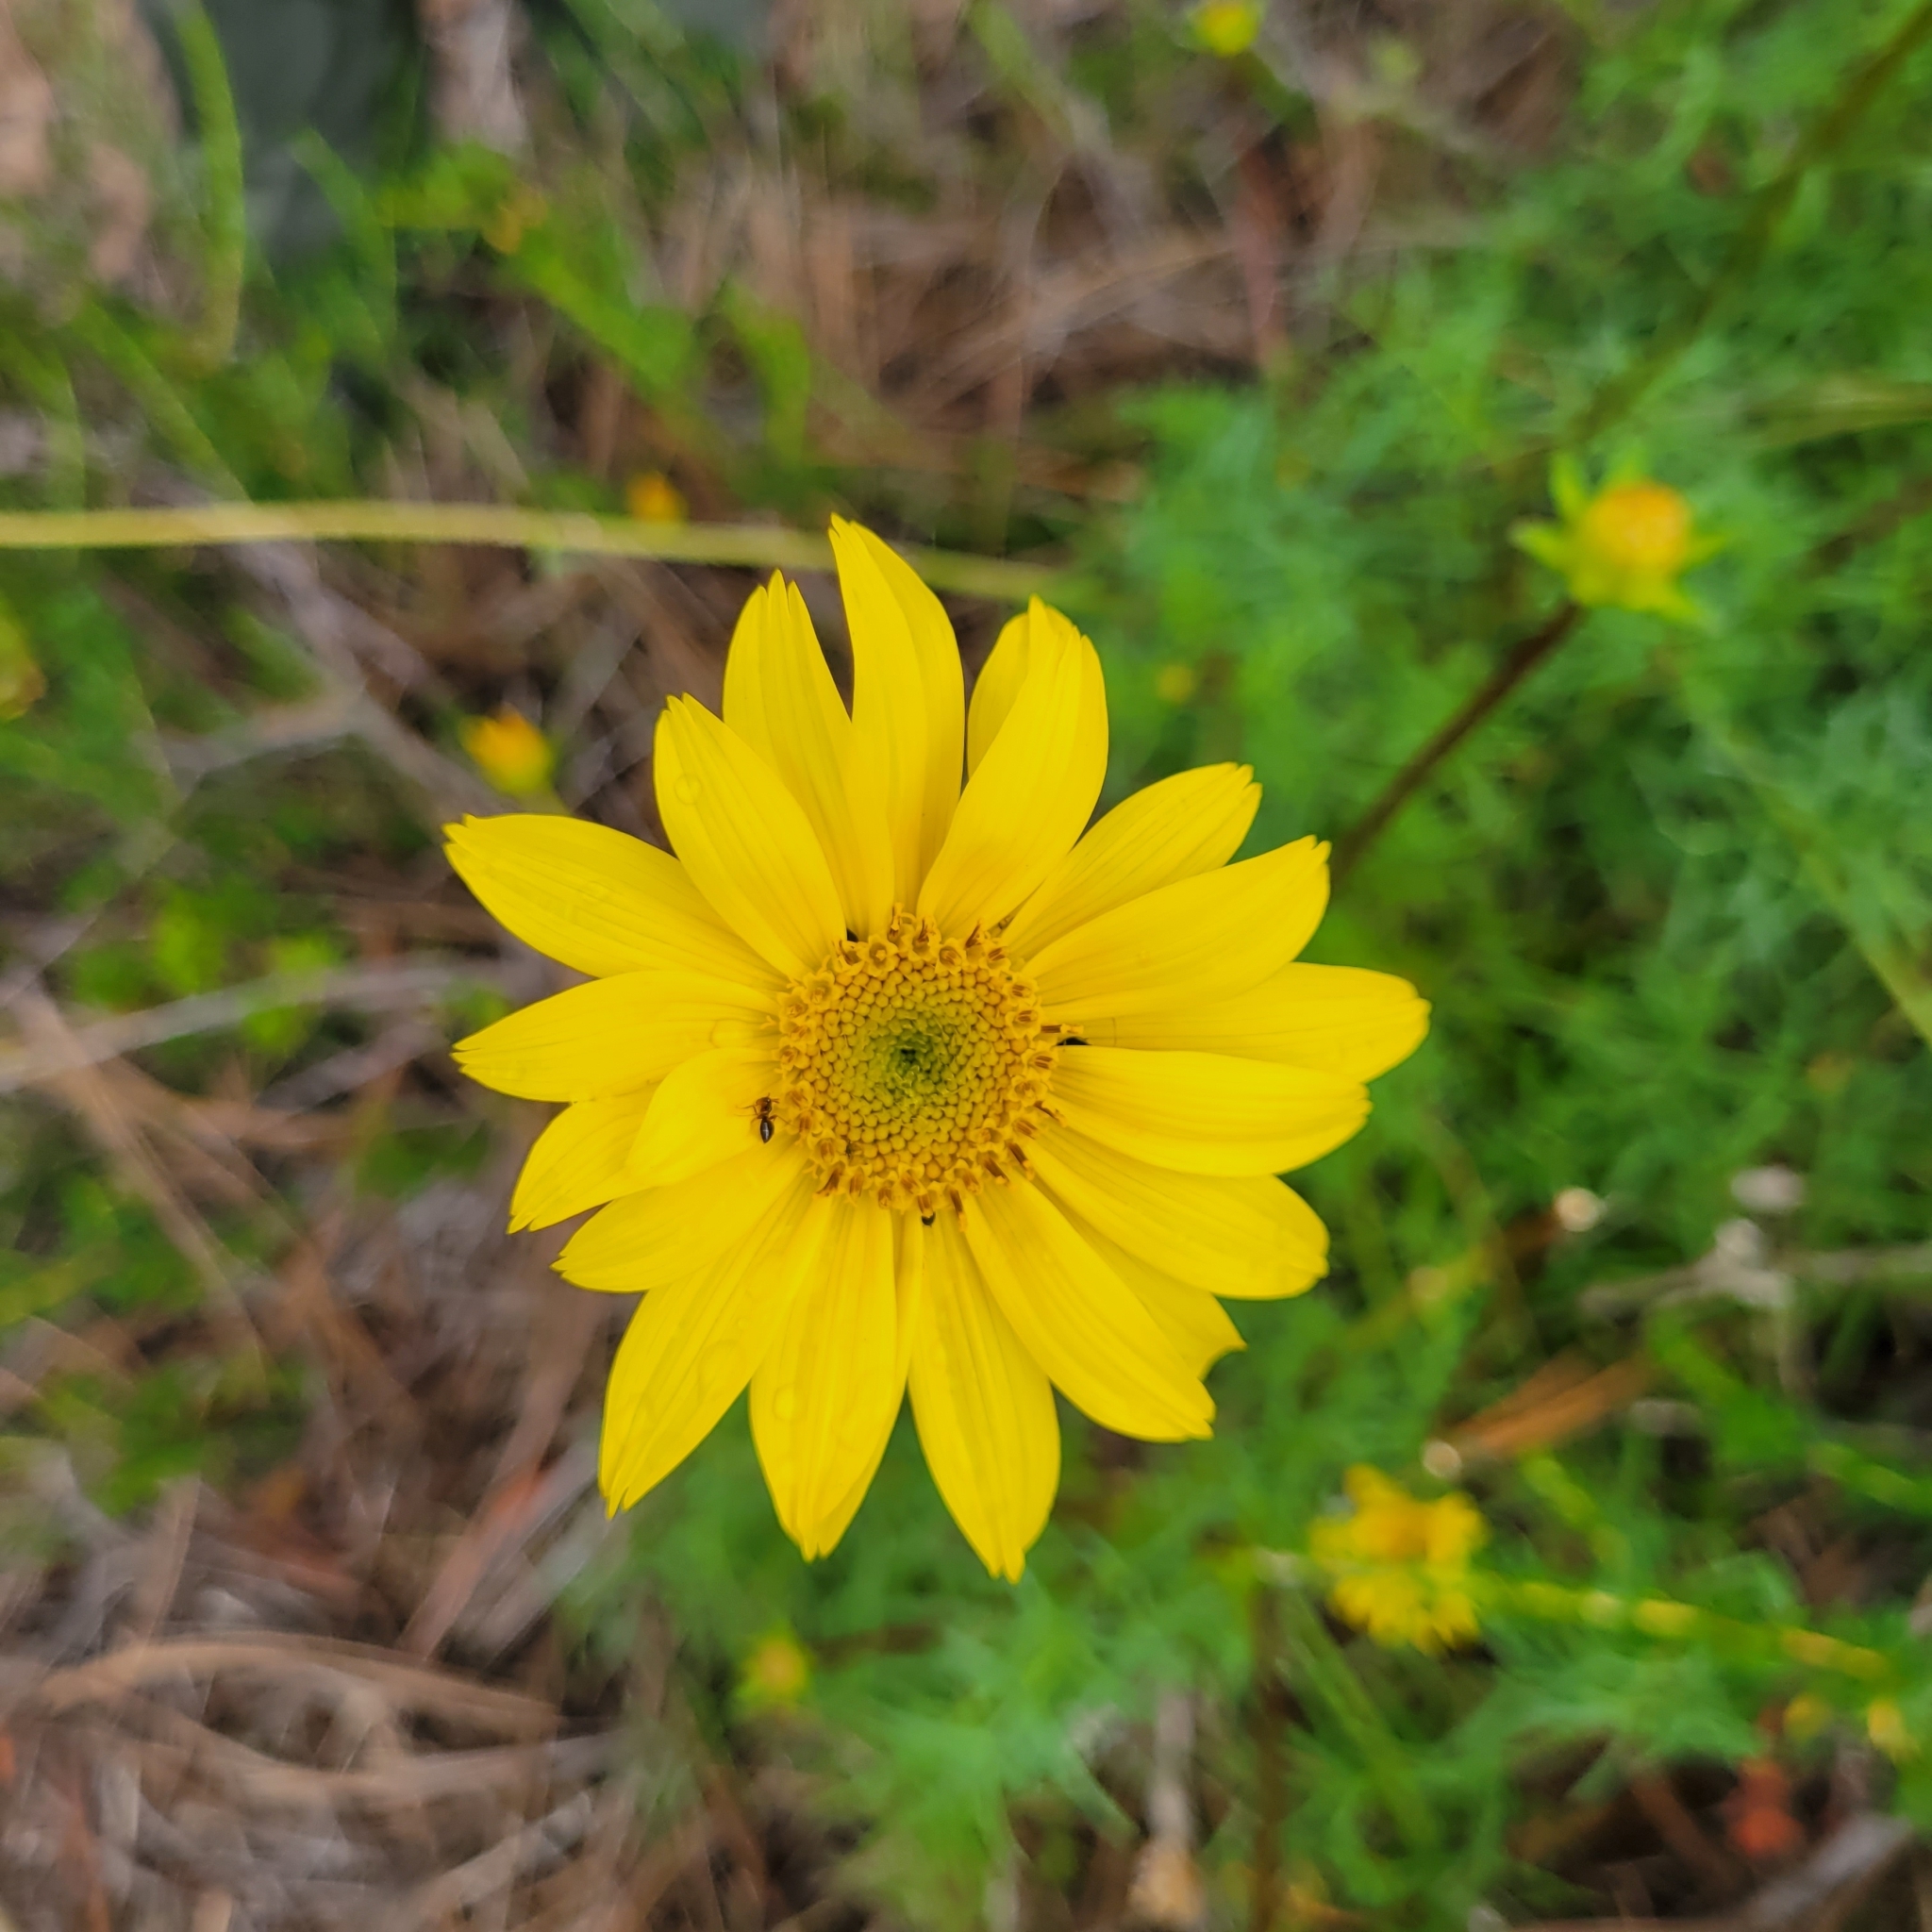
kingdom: Plantae
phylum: Tracheophyta
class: Magnoliopsida
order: Asterales
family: Asteraceae
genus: Coreopsis
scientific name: Coreopsis maritima
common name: Sea-dahlia
